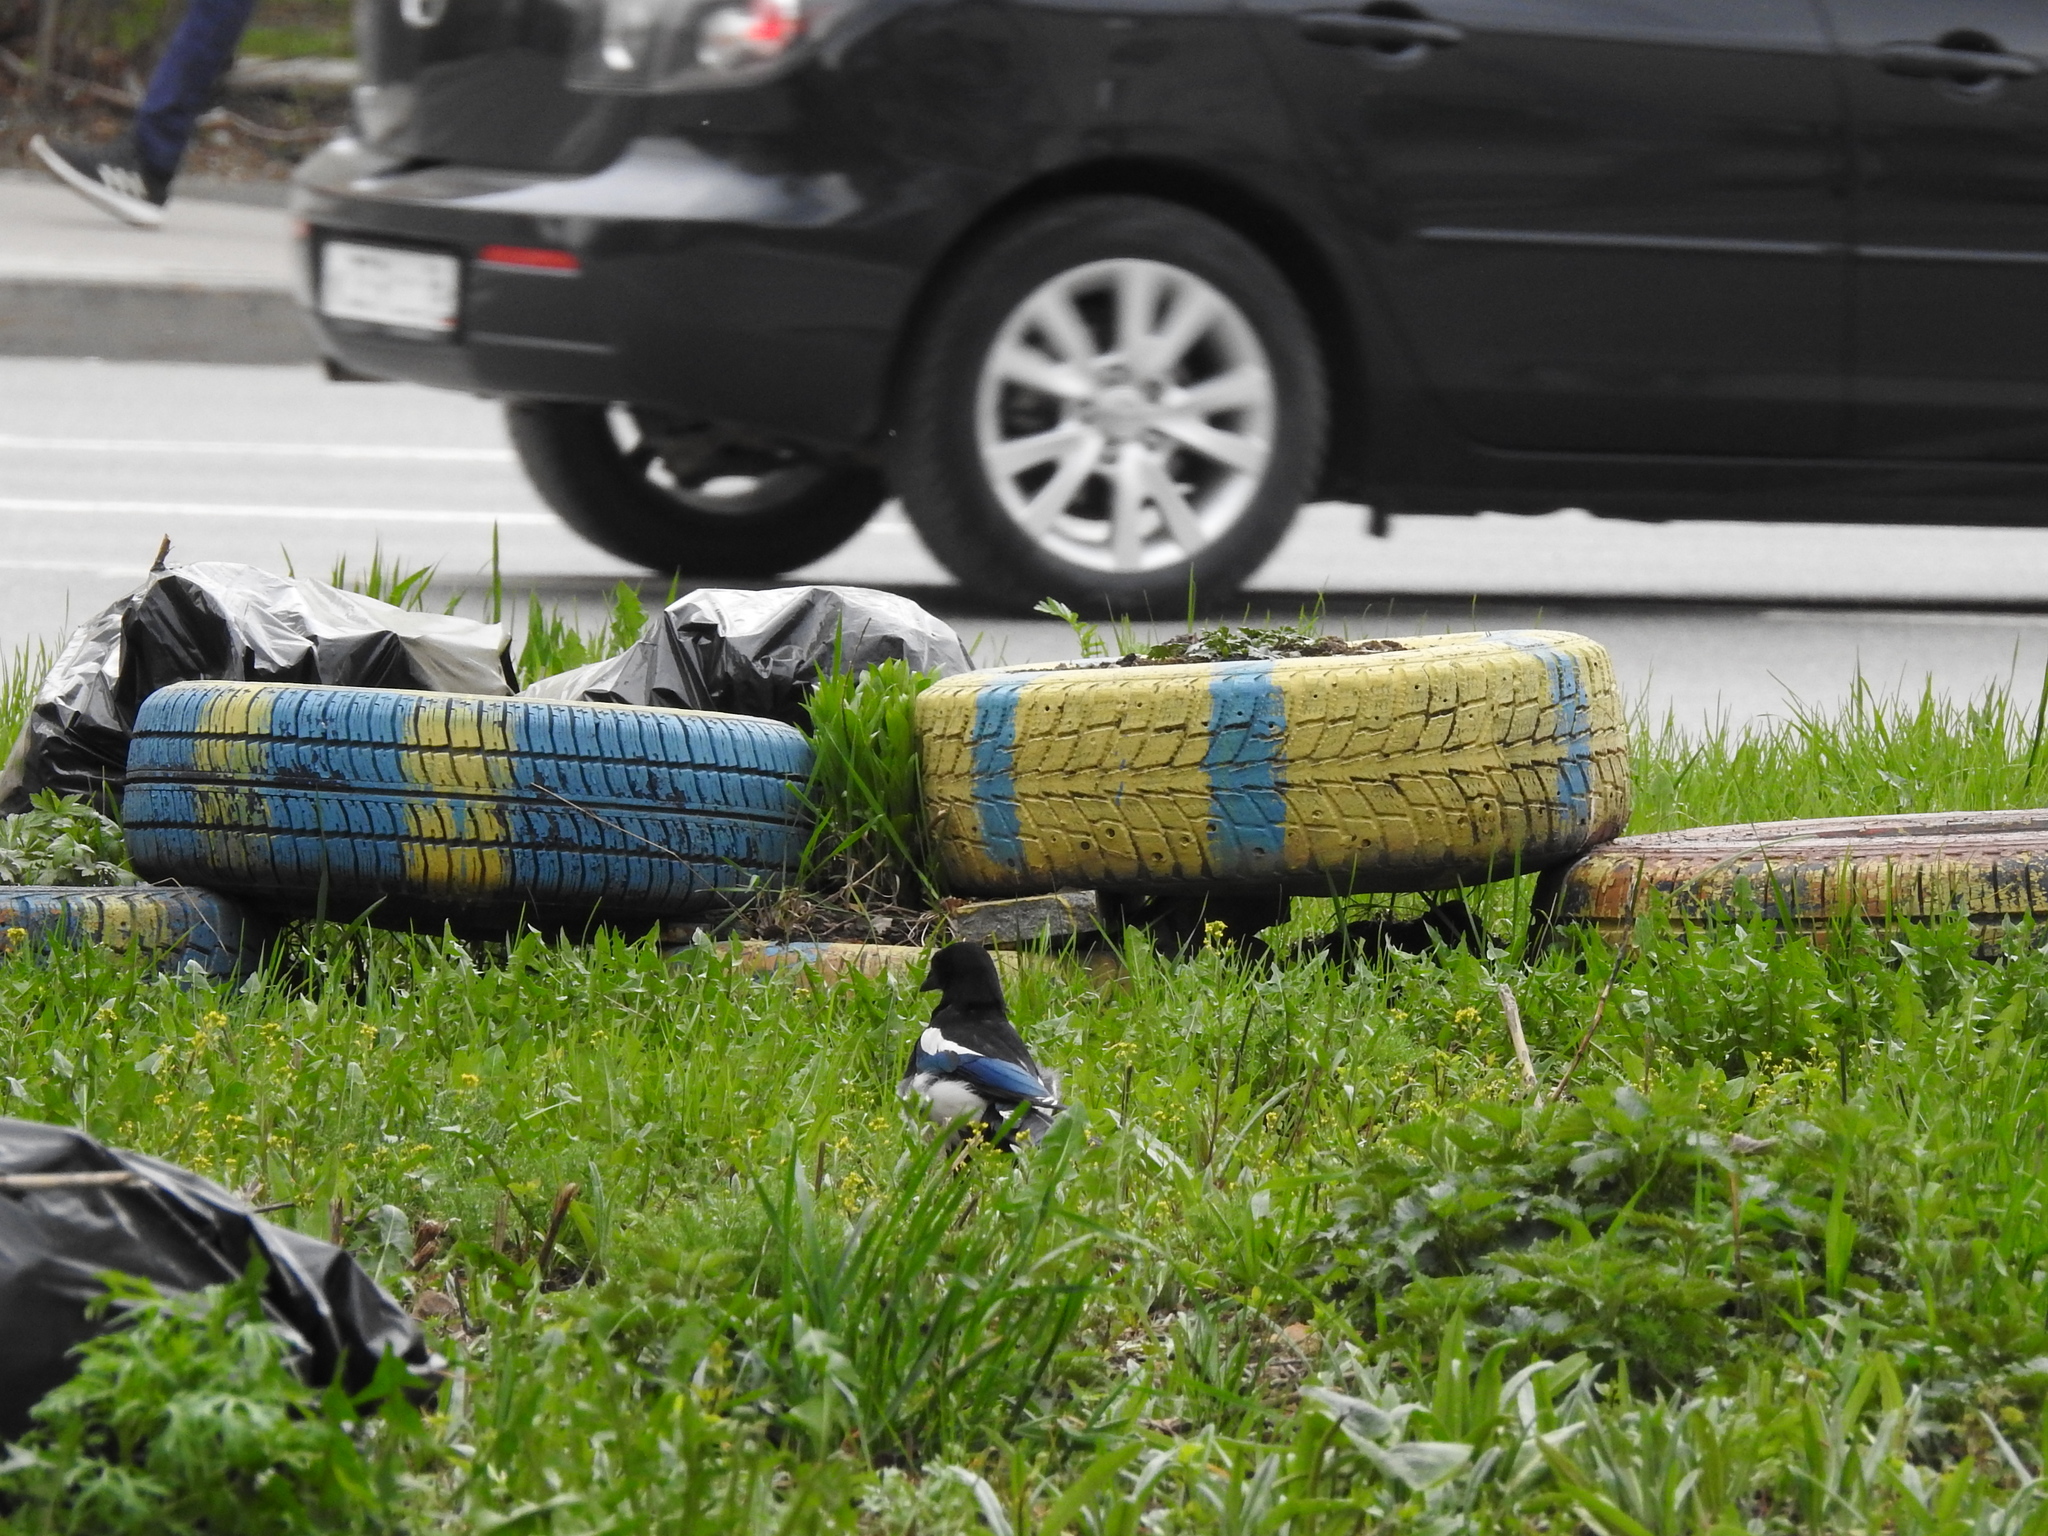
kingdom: Animalia
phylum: Chordata
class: Aves
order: Passeriformes
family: Corvidae
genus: Pica
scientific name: Pica pica
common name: Eurasian magpie
